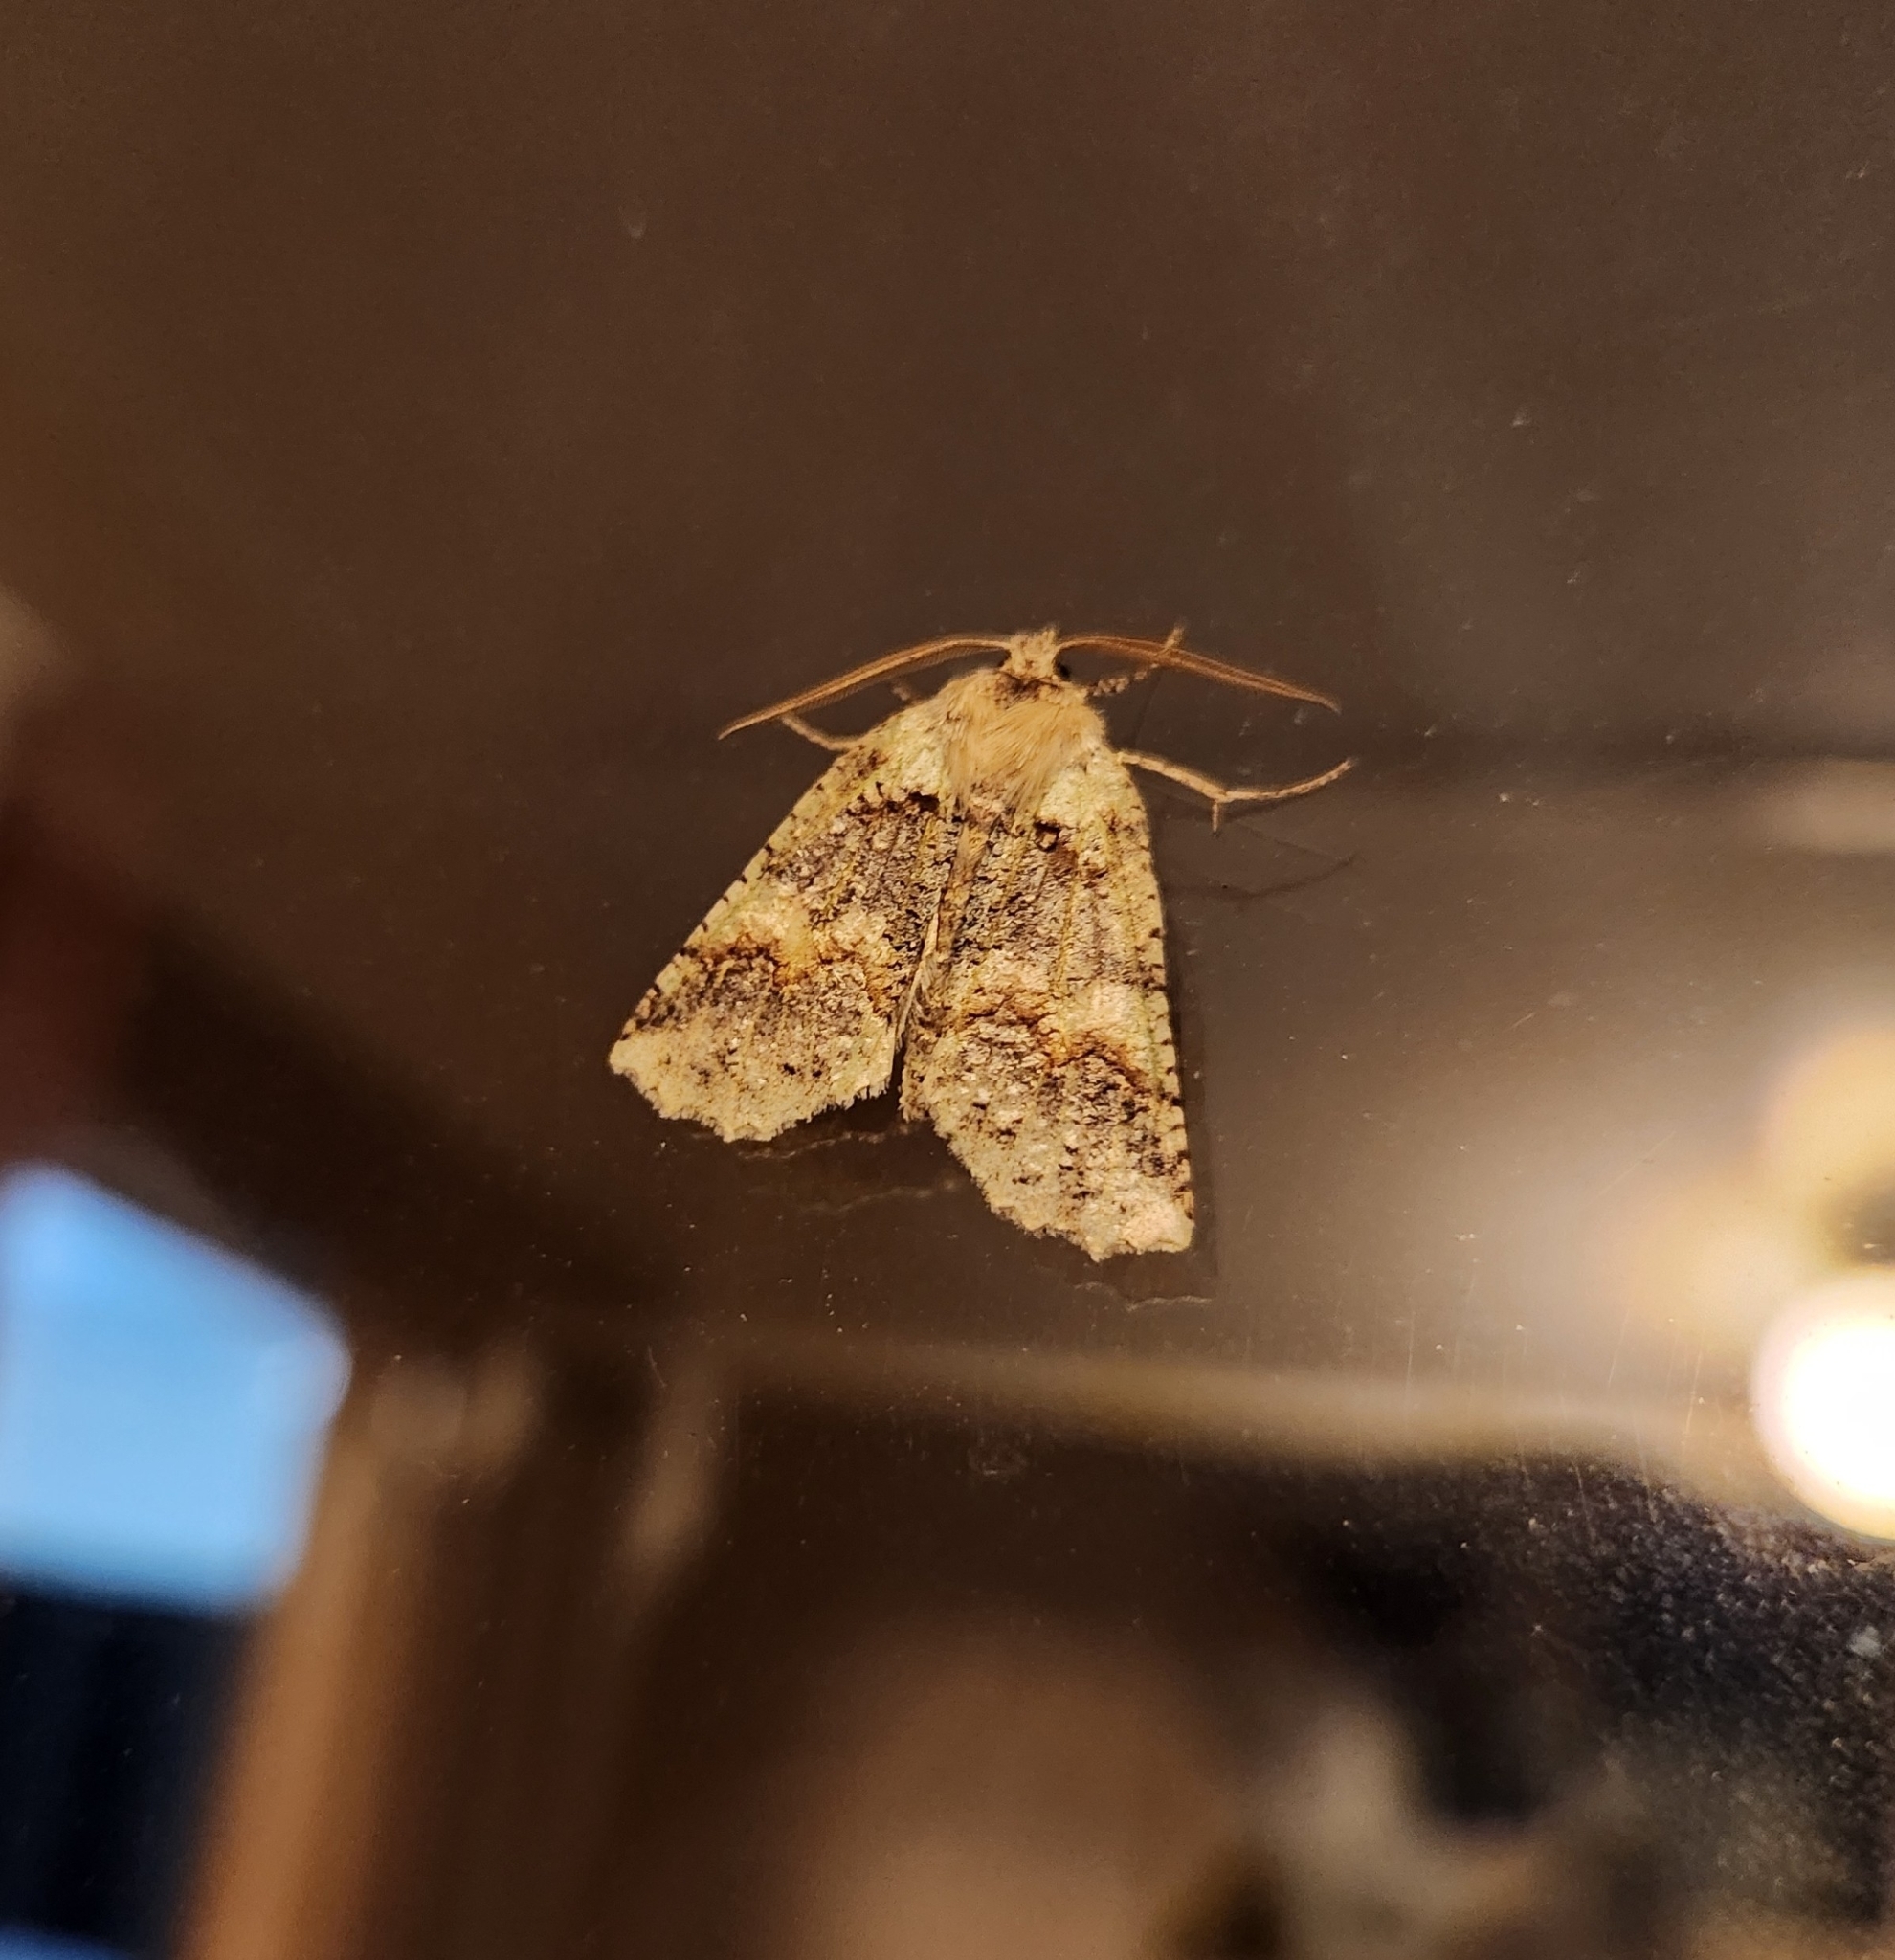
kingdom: Animalia
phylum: Arthropoda
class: Insecta
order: Lepidoptera
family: Geometridae
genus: Declana
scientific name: Declana floccosa
